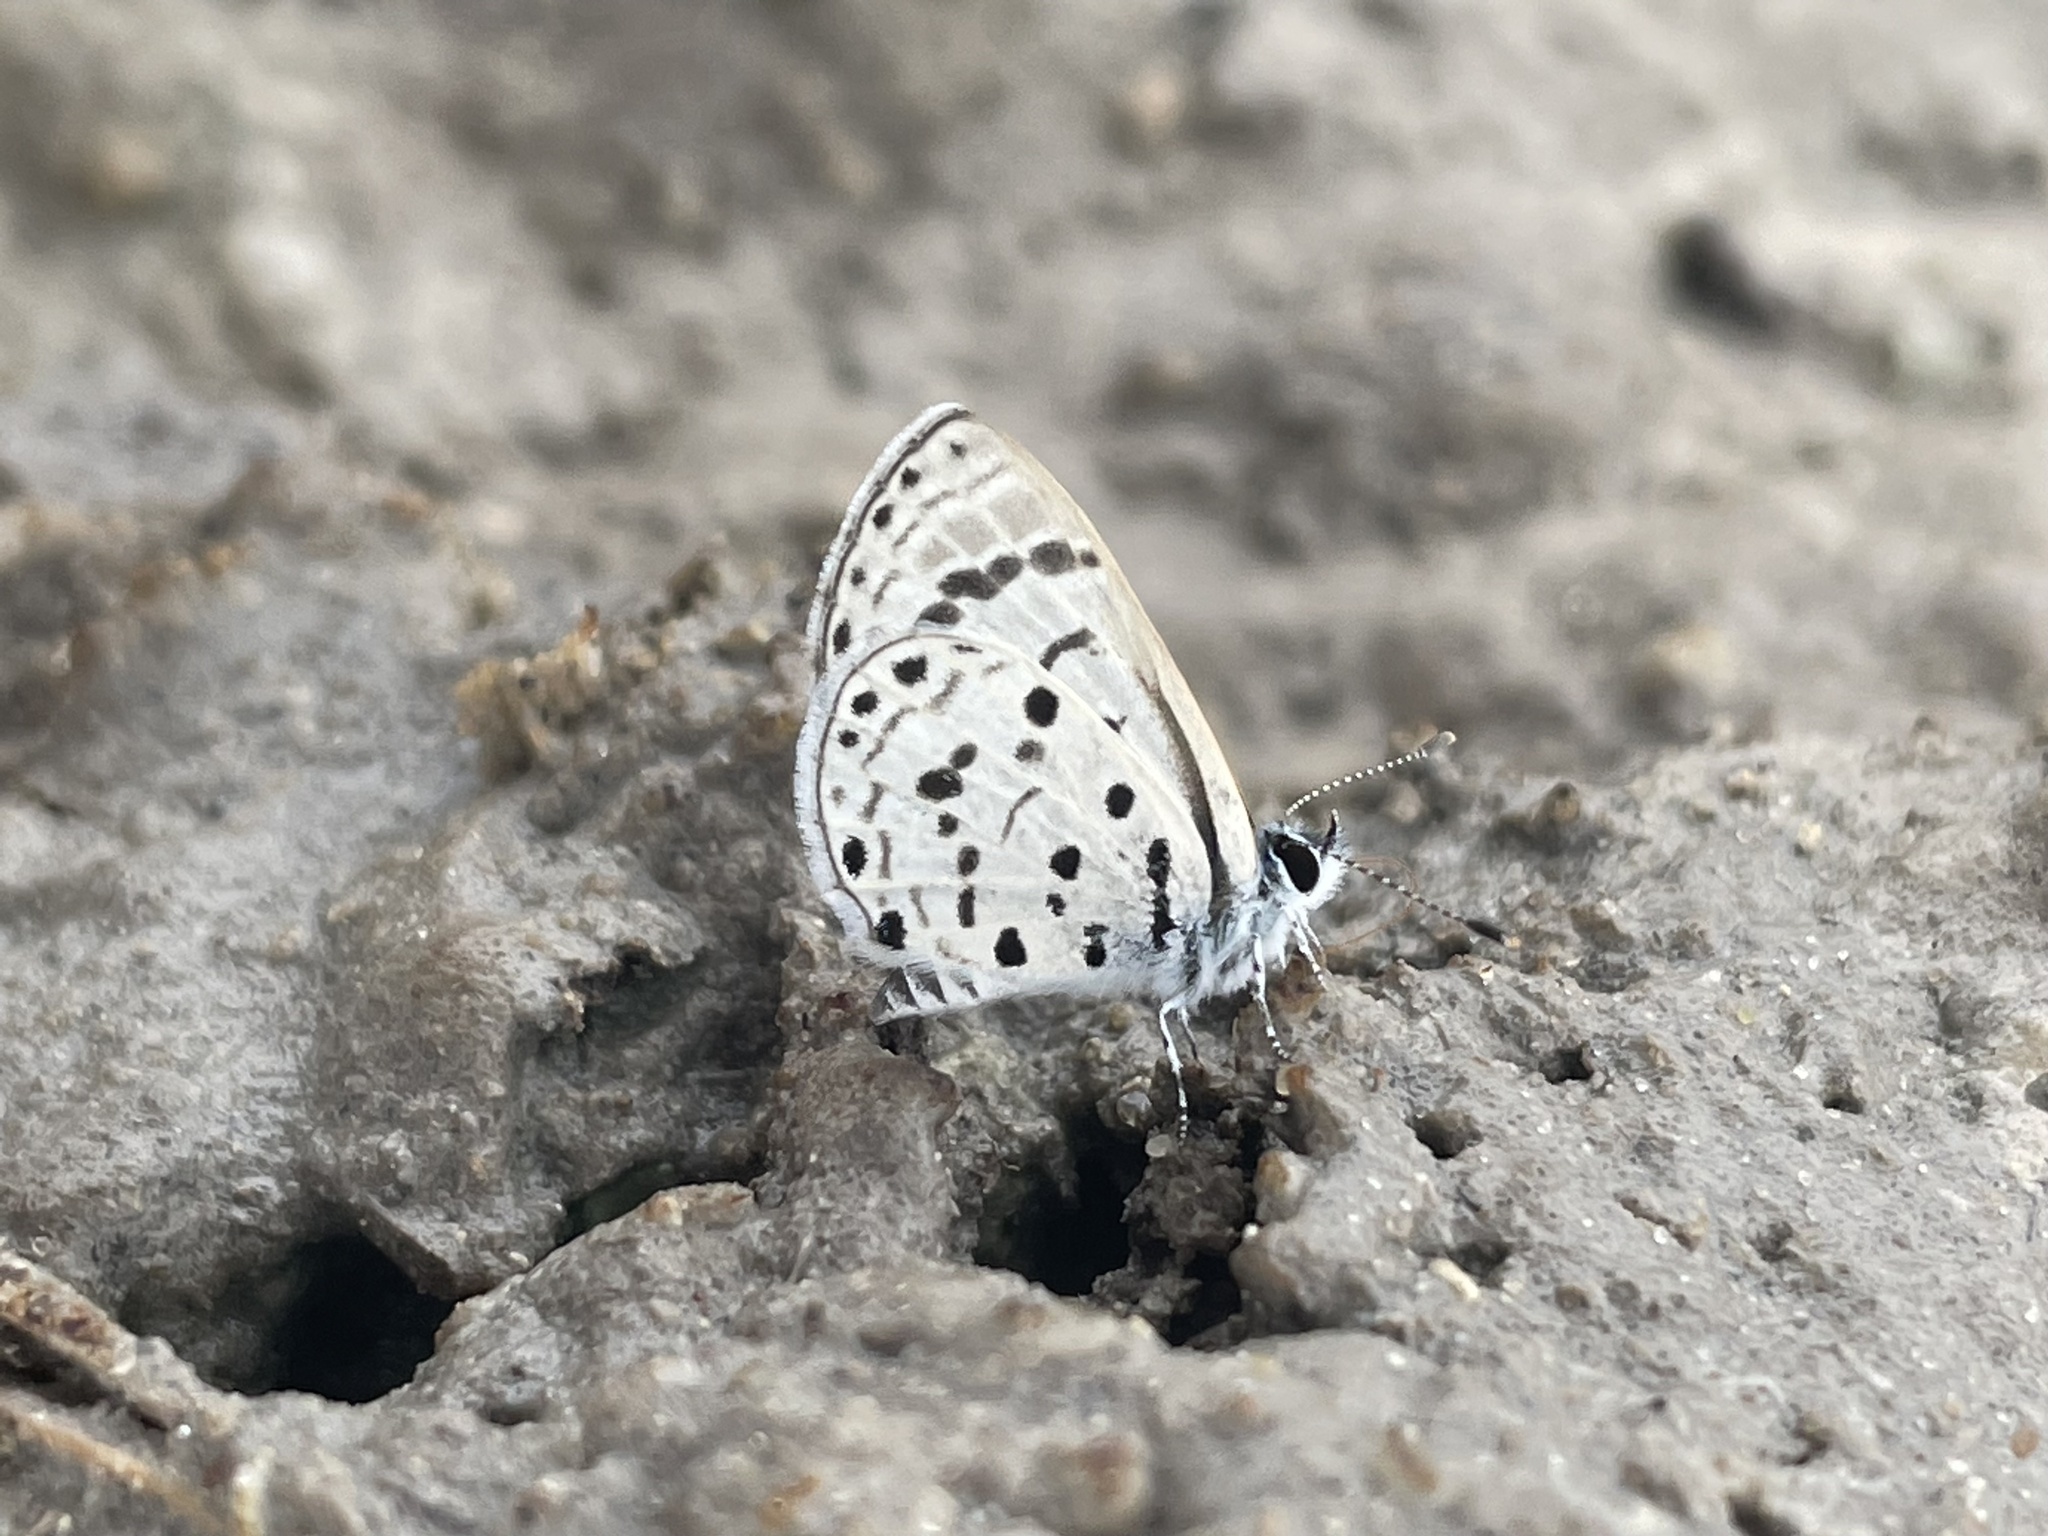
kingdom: Animalia
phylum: Arthropoda
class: Insecta
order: Lepidoptera
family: Lycaenidae
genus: Azanus
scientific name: Azanus moriqua
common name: Thorn-tree babul blue
